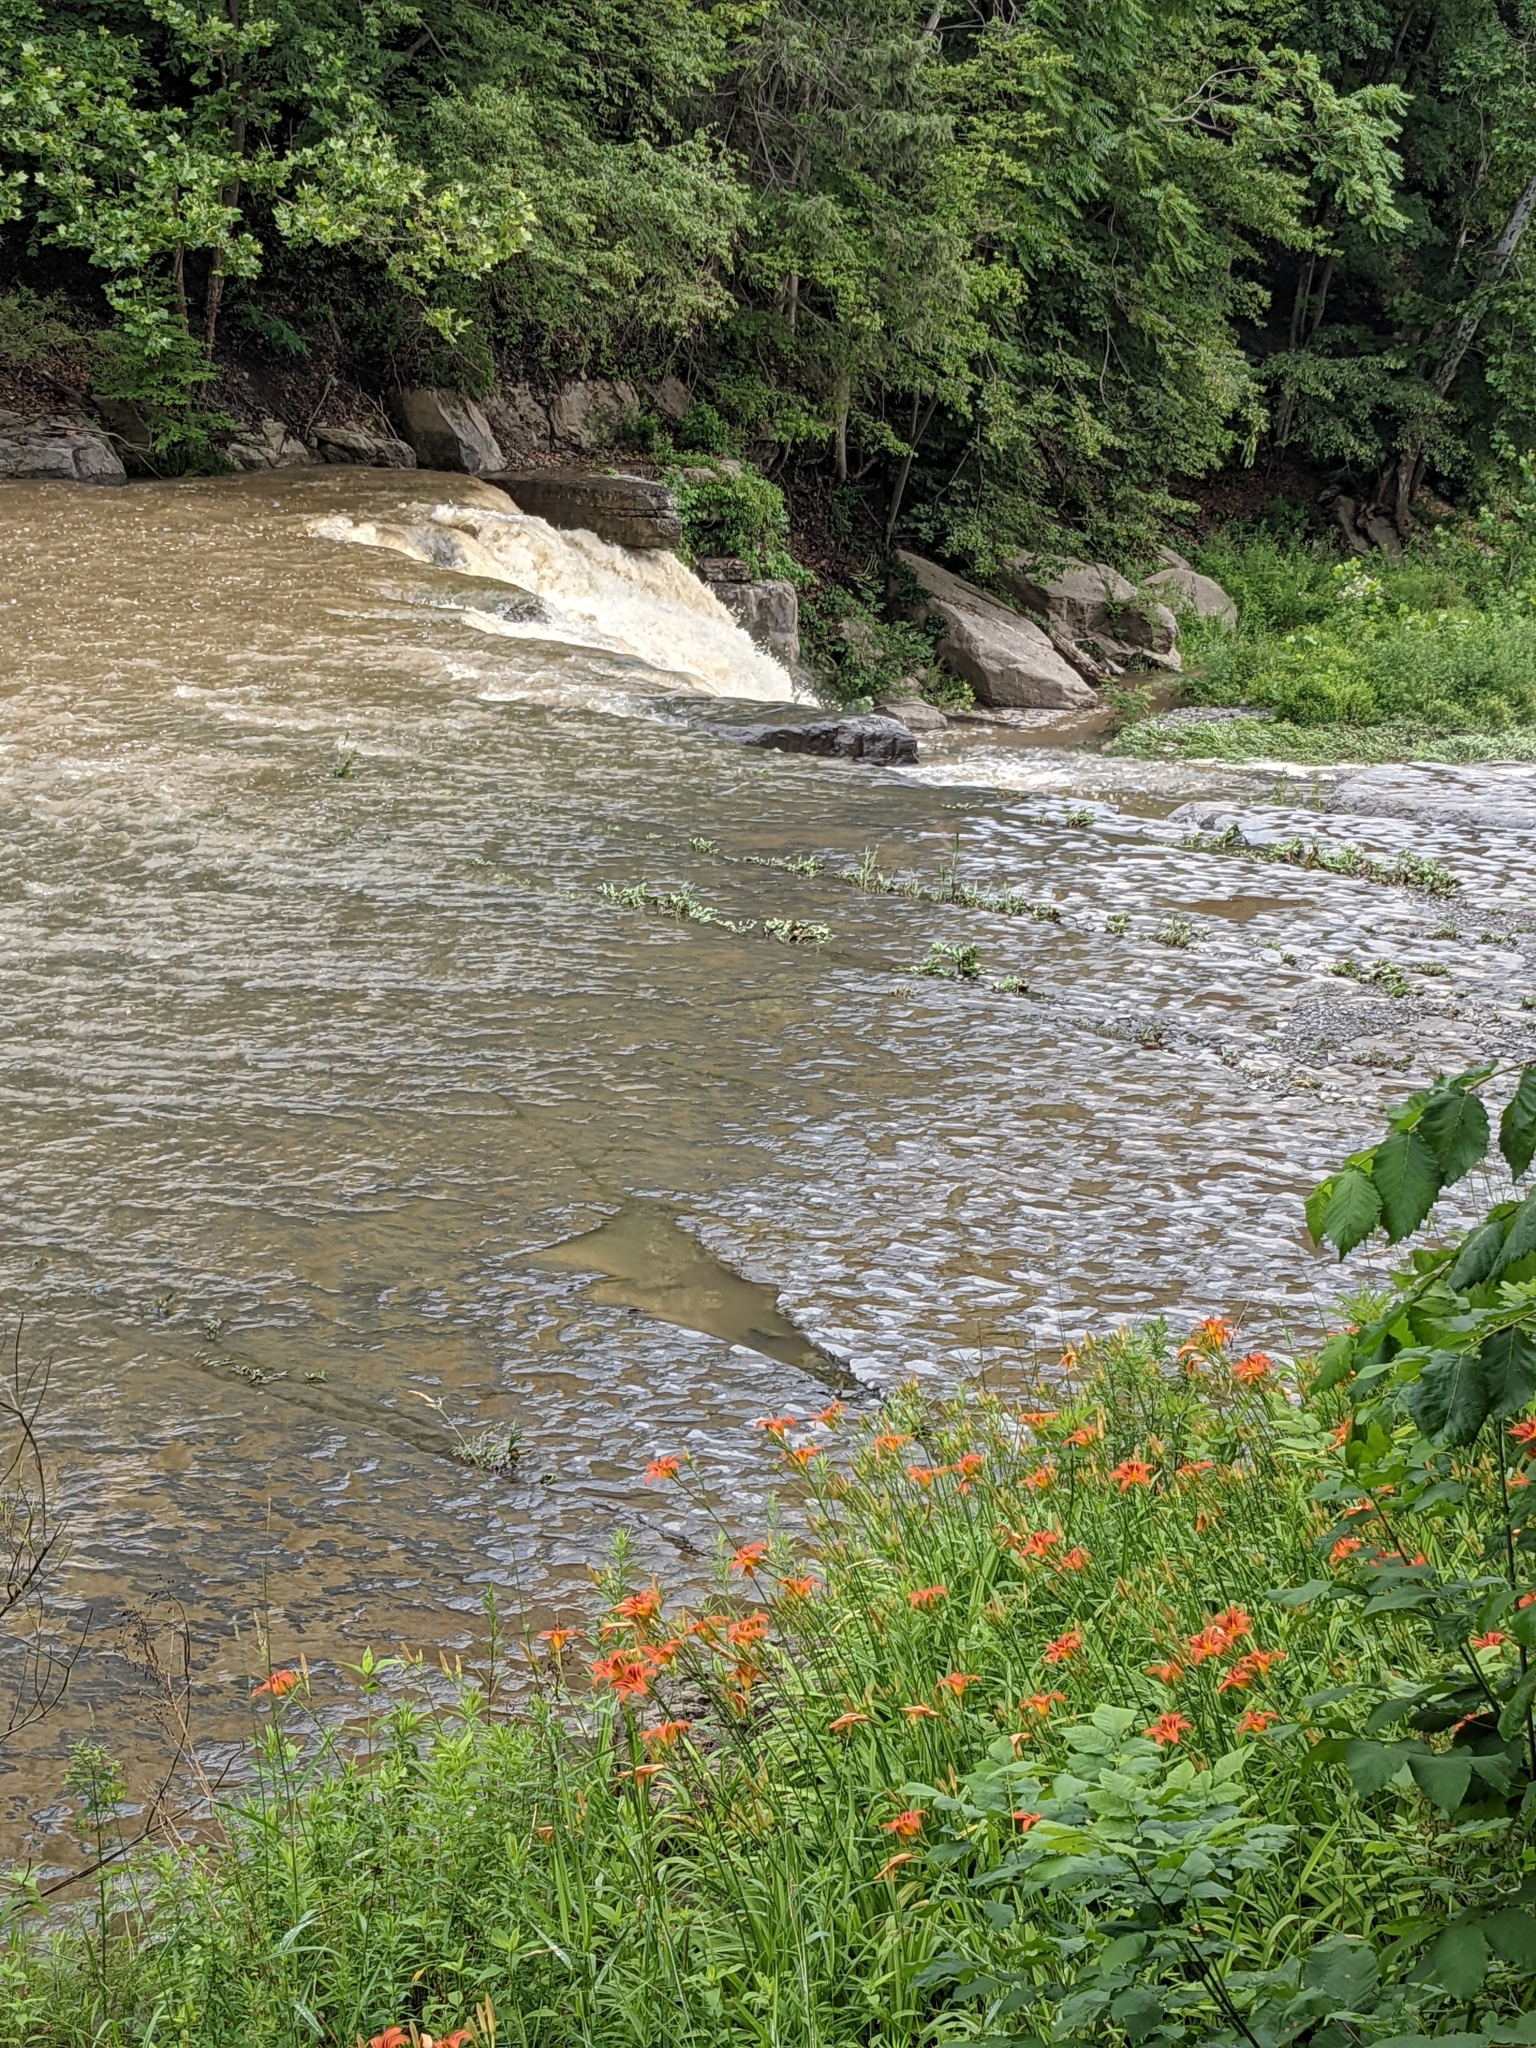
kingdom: Plantae
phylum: Tracheophyta
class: Liliopsida
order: Asparagales
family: Asphodelaceae
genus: Hemerocallis
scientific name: Hemerocallis fulva
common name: Orange day-lily
